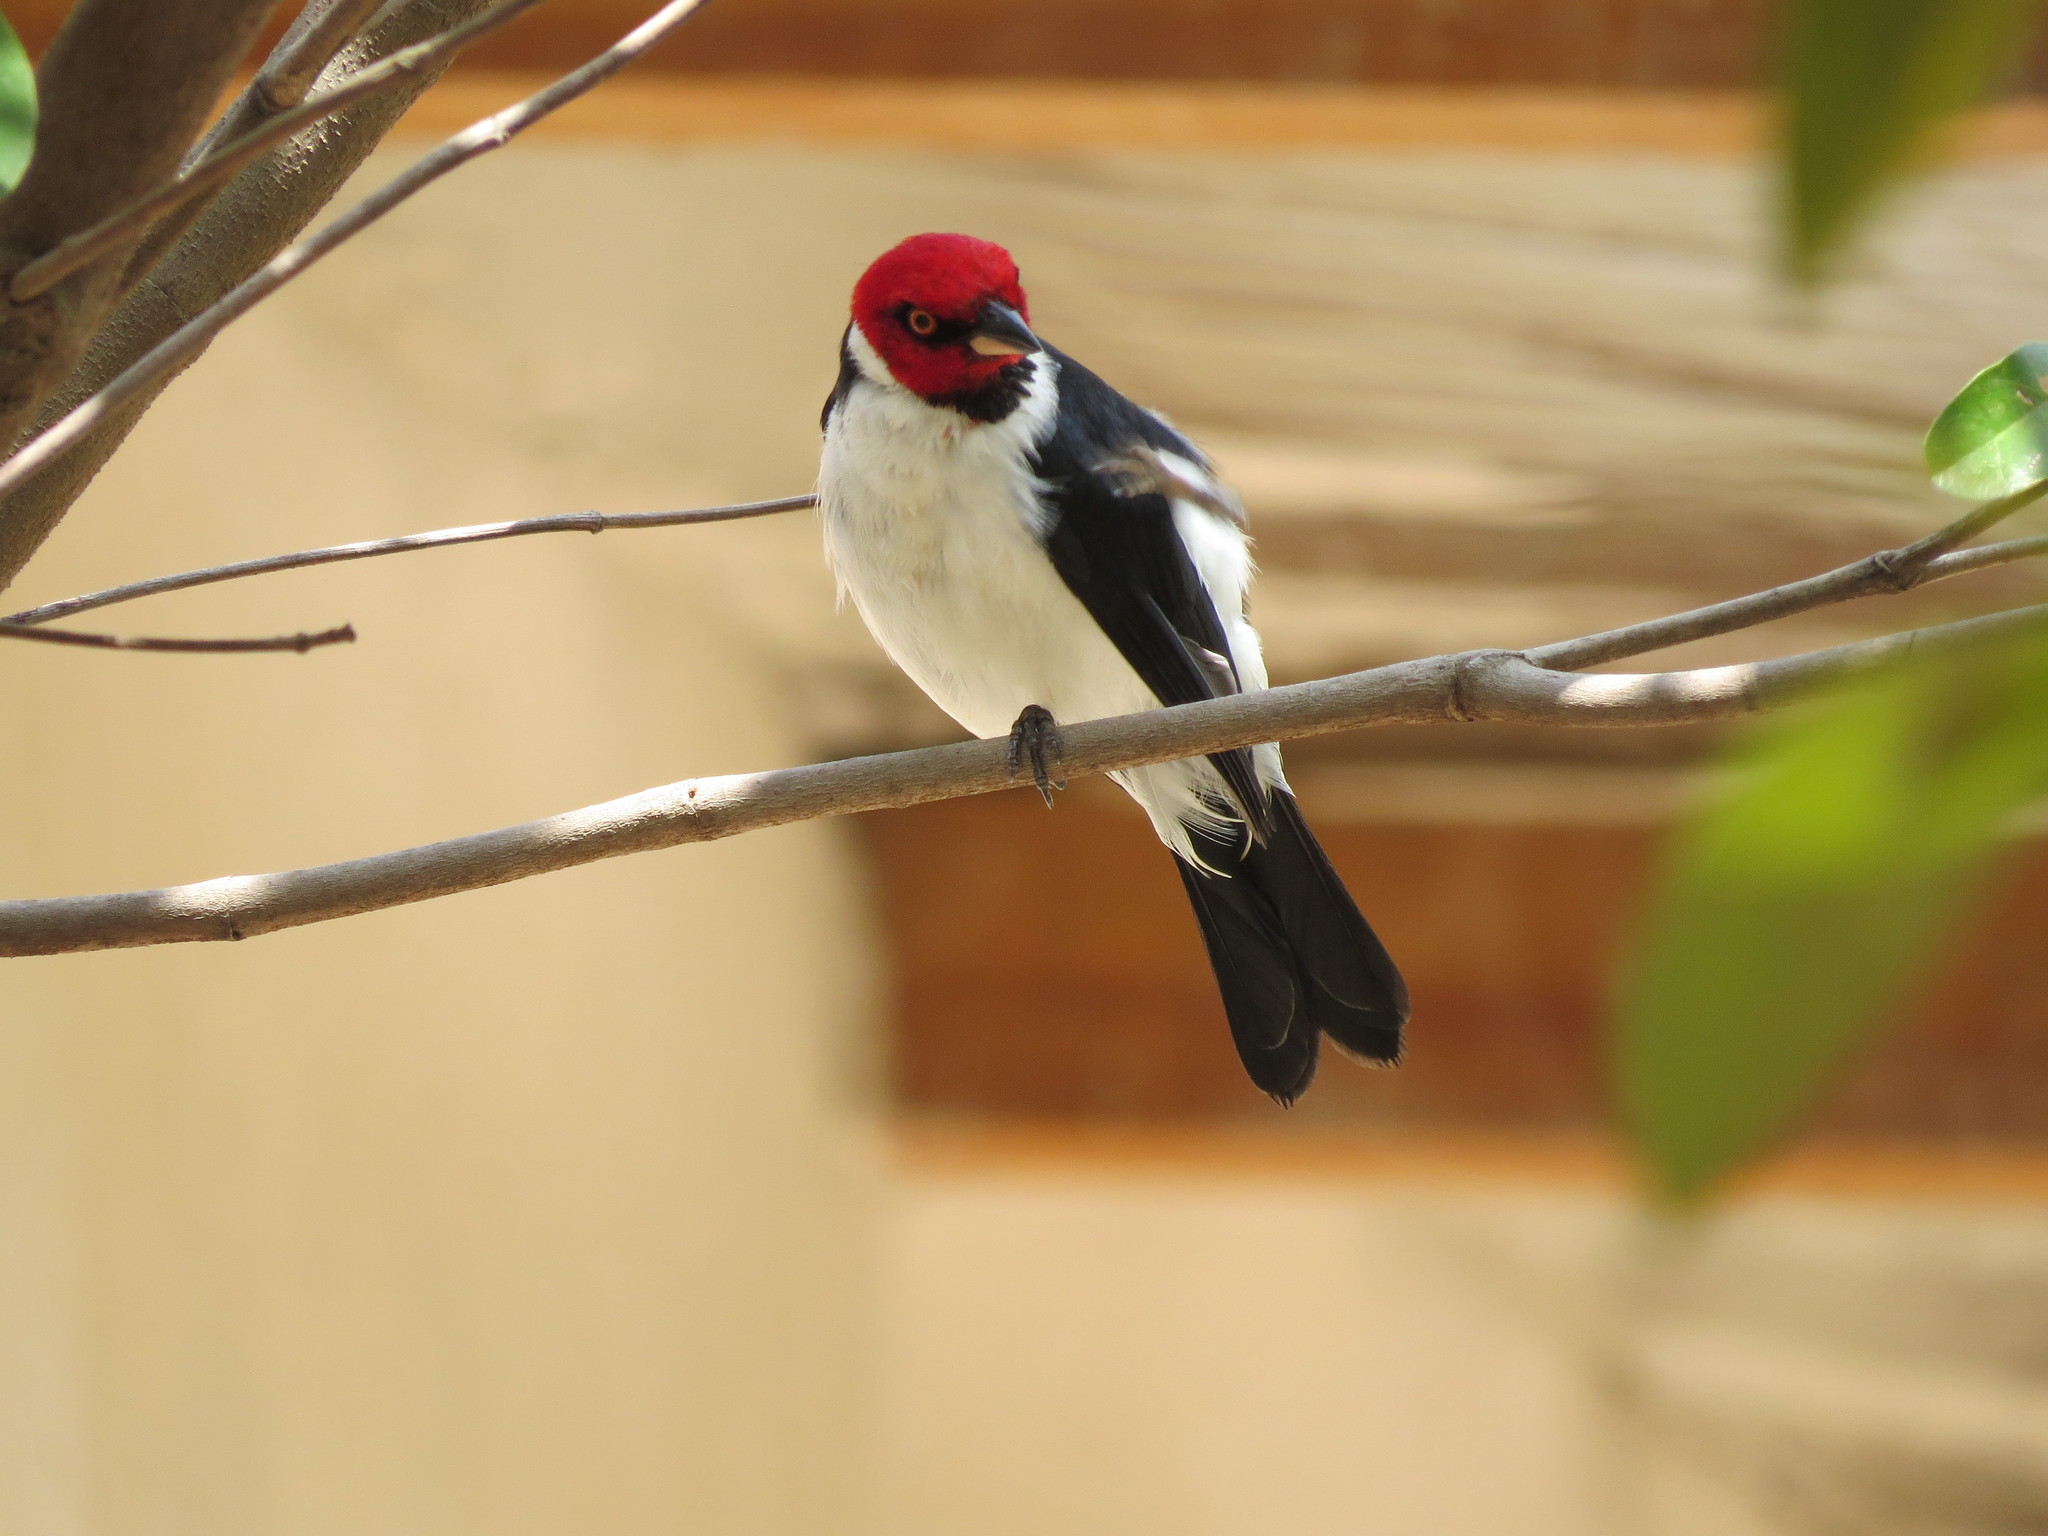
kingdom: Animalia
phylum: Chordata
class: Aves
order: Passeriformes
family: Thraupidae
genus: Paroaria
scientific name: Paroaria gularis
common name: Red-capped cardinal
